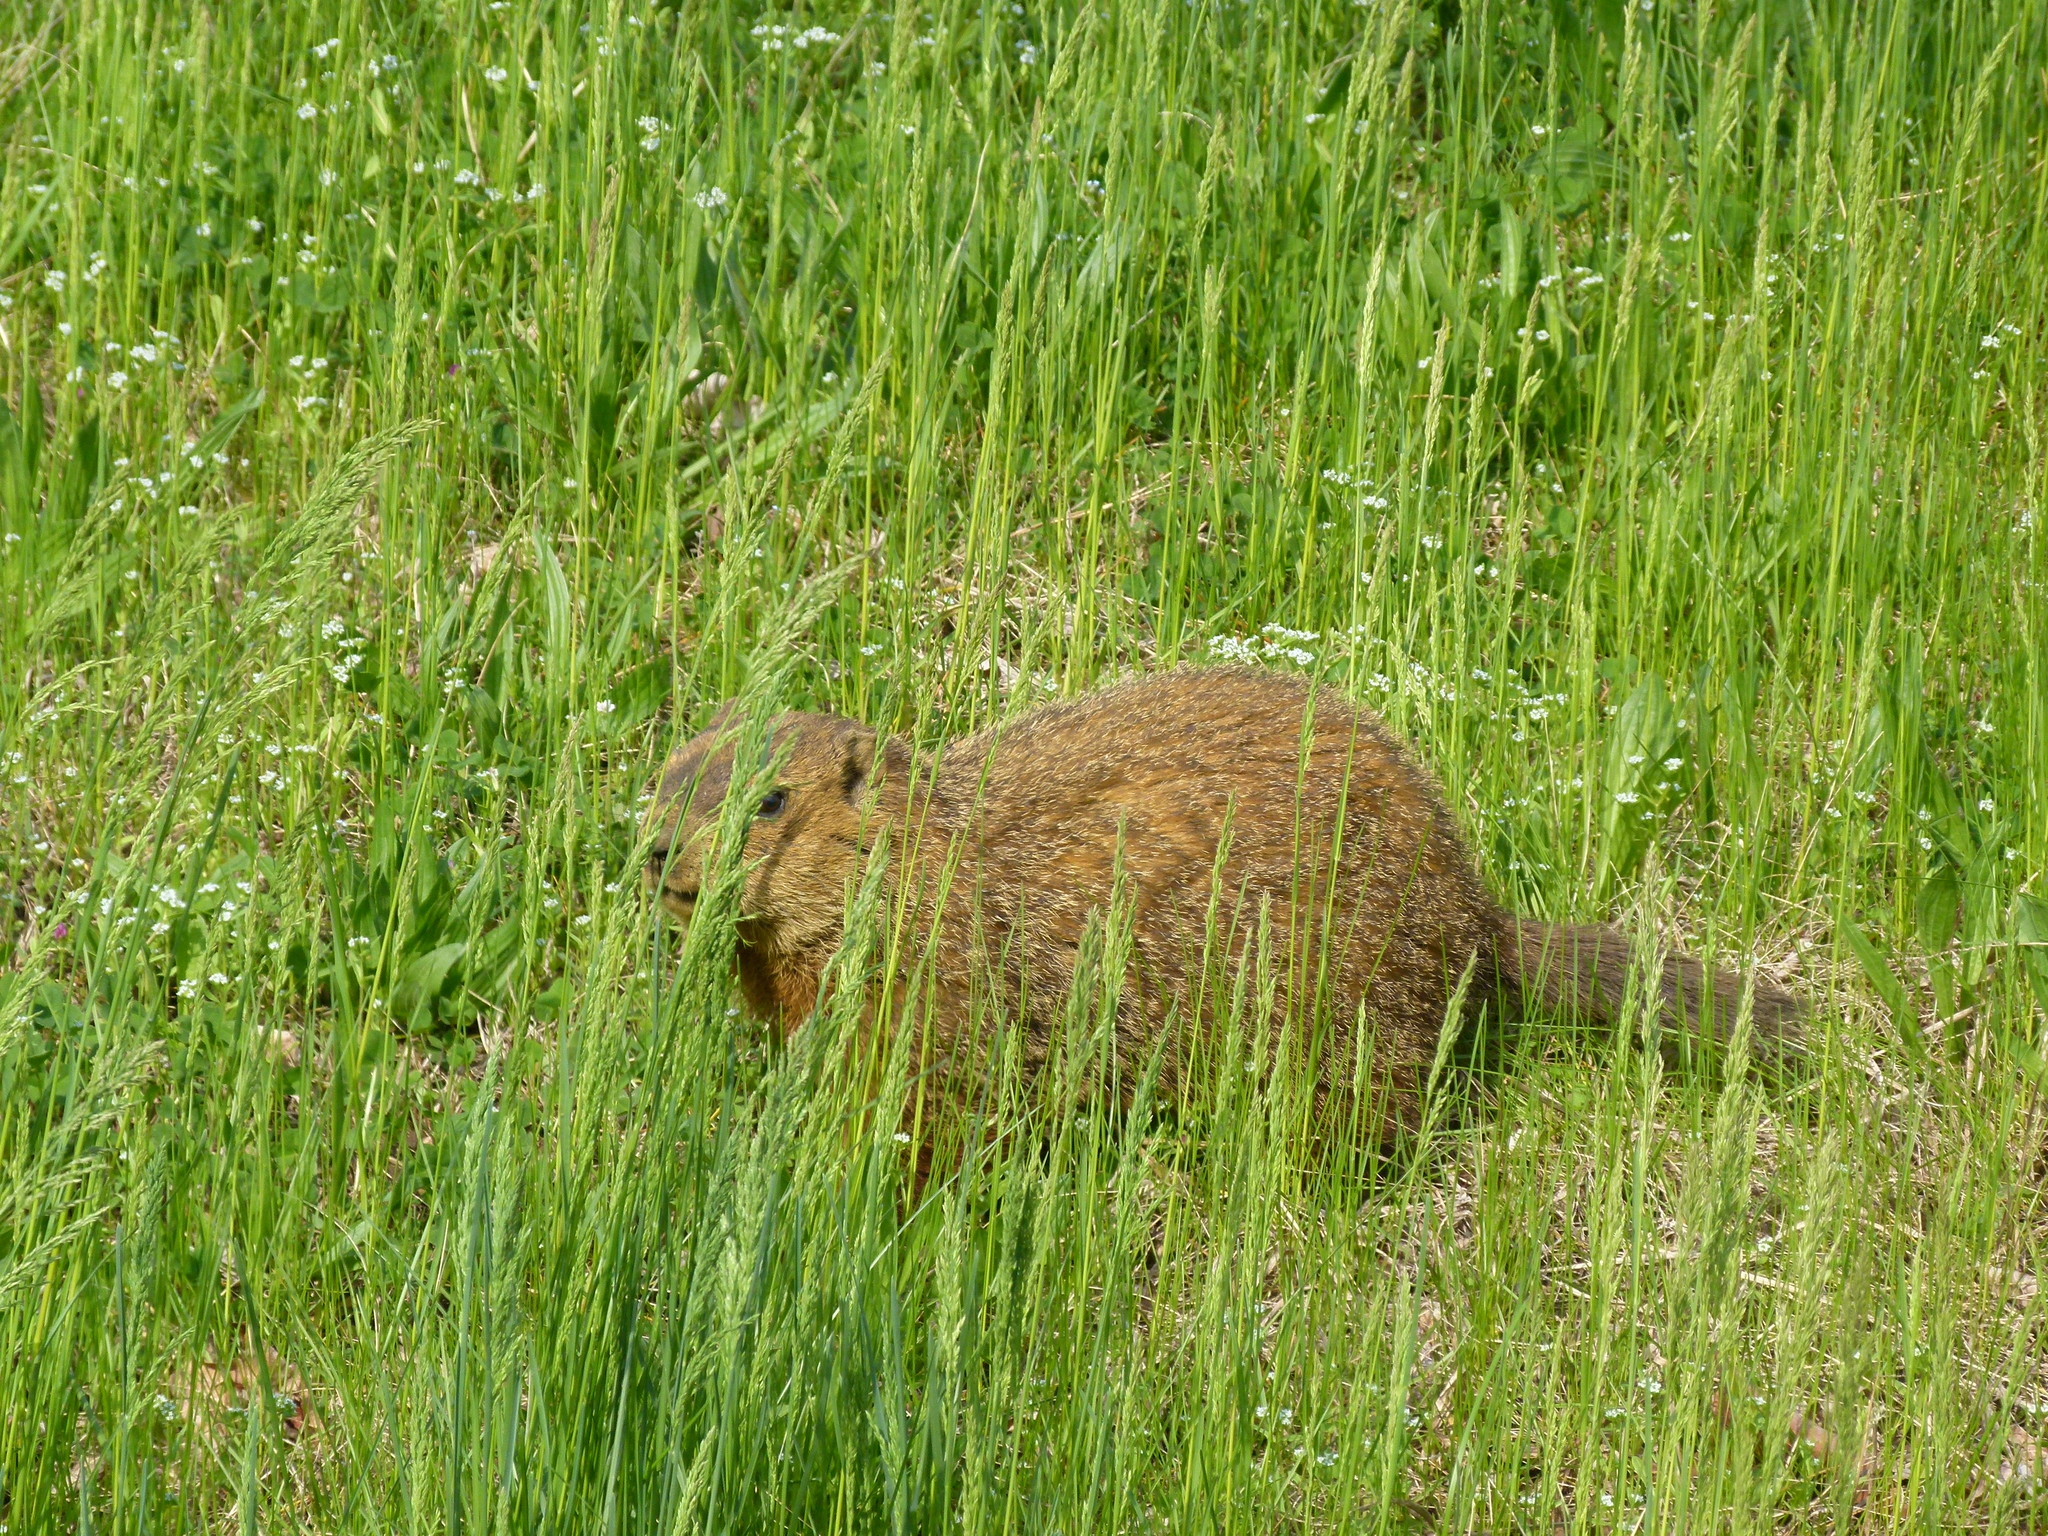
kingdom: Animalia
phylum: Chordata
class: Mammalia
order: Rodentia
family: Sciuridae
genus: Marmota
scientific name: Marmota monax
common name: Groundhog
